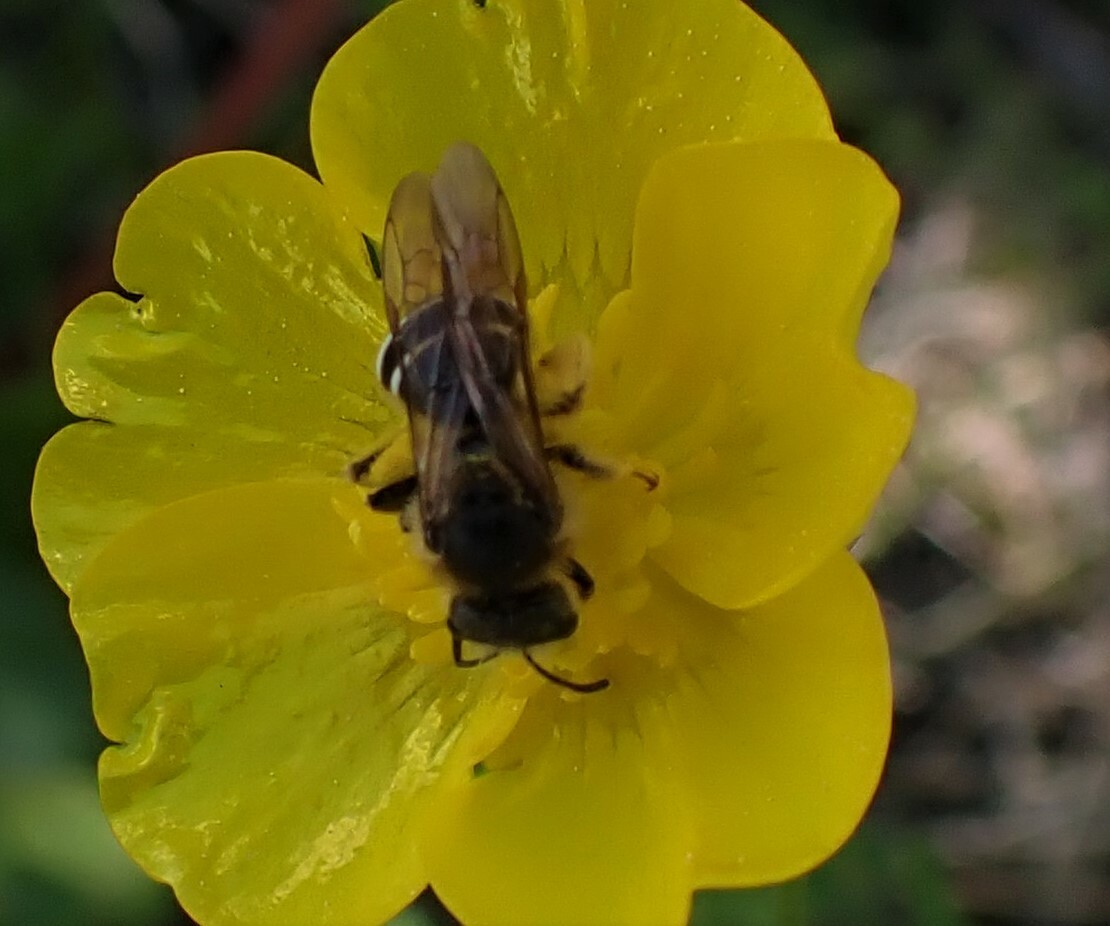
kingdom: Animalia
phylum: Arthropoda
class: Insecta
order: Hymenoptera
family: Halictidae
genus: Halictus
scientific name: Halictus rubicundus
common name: Orange-legged furrow bee
